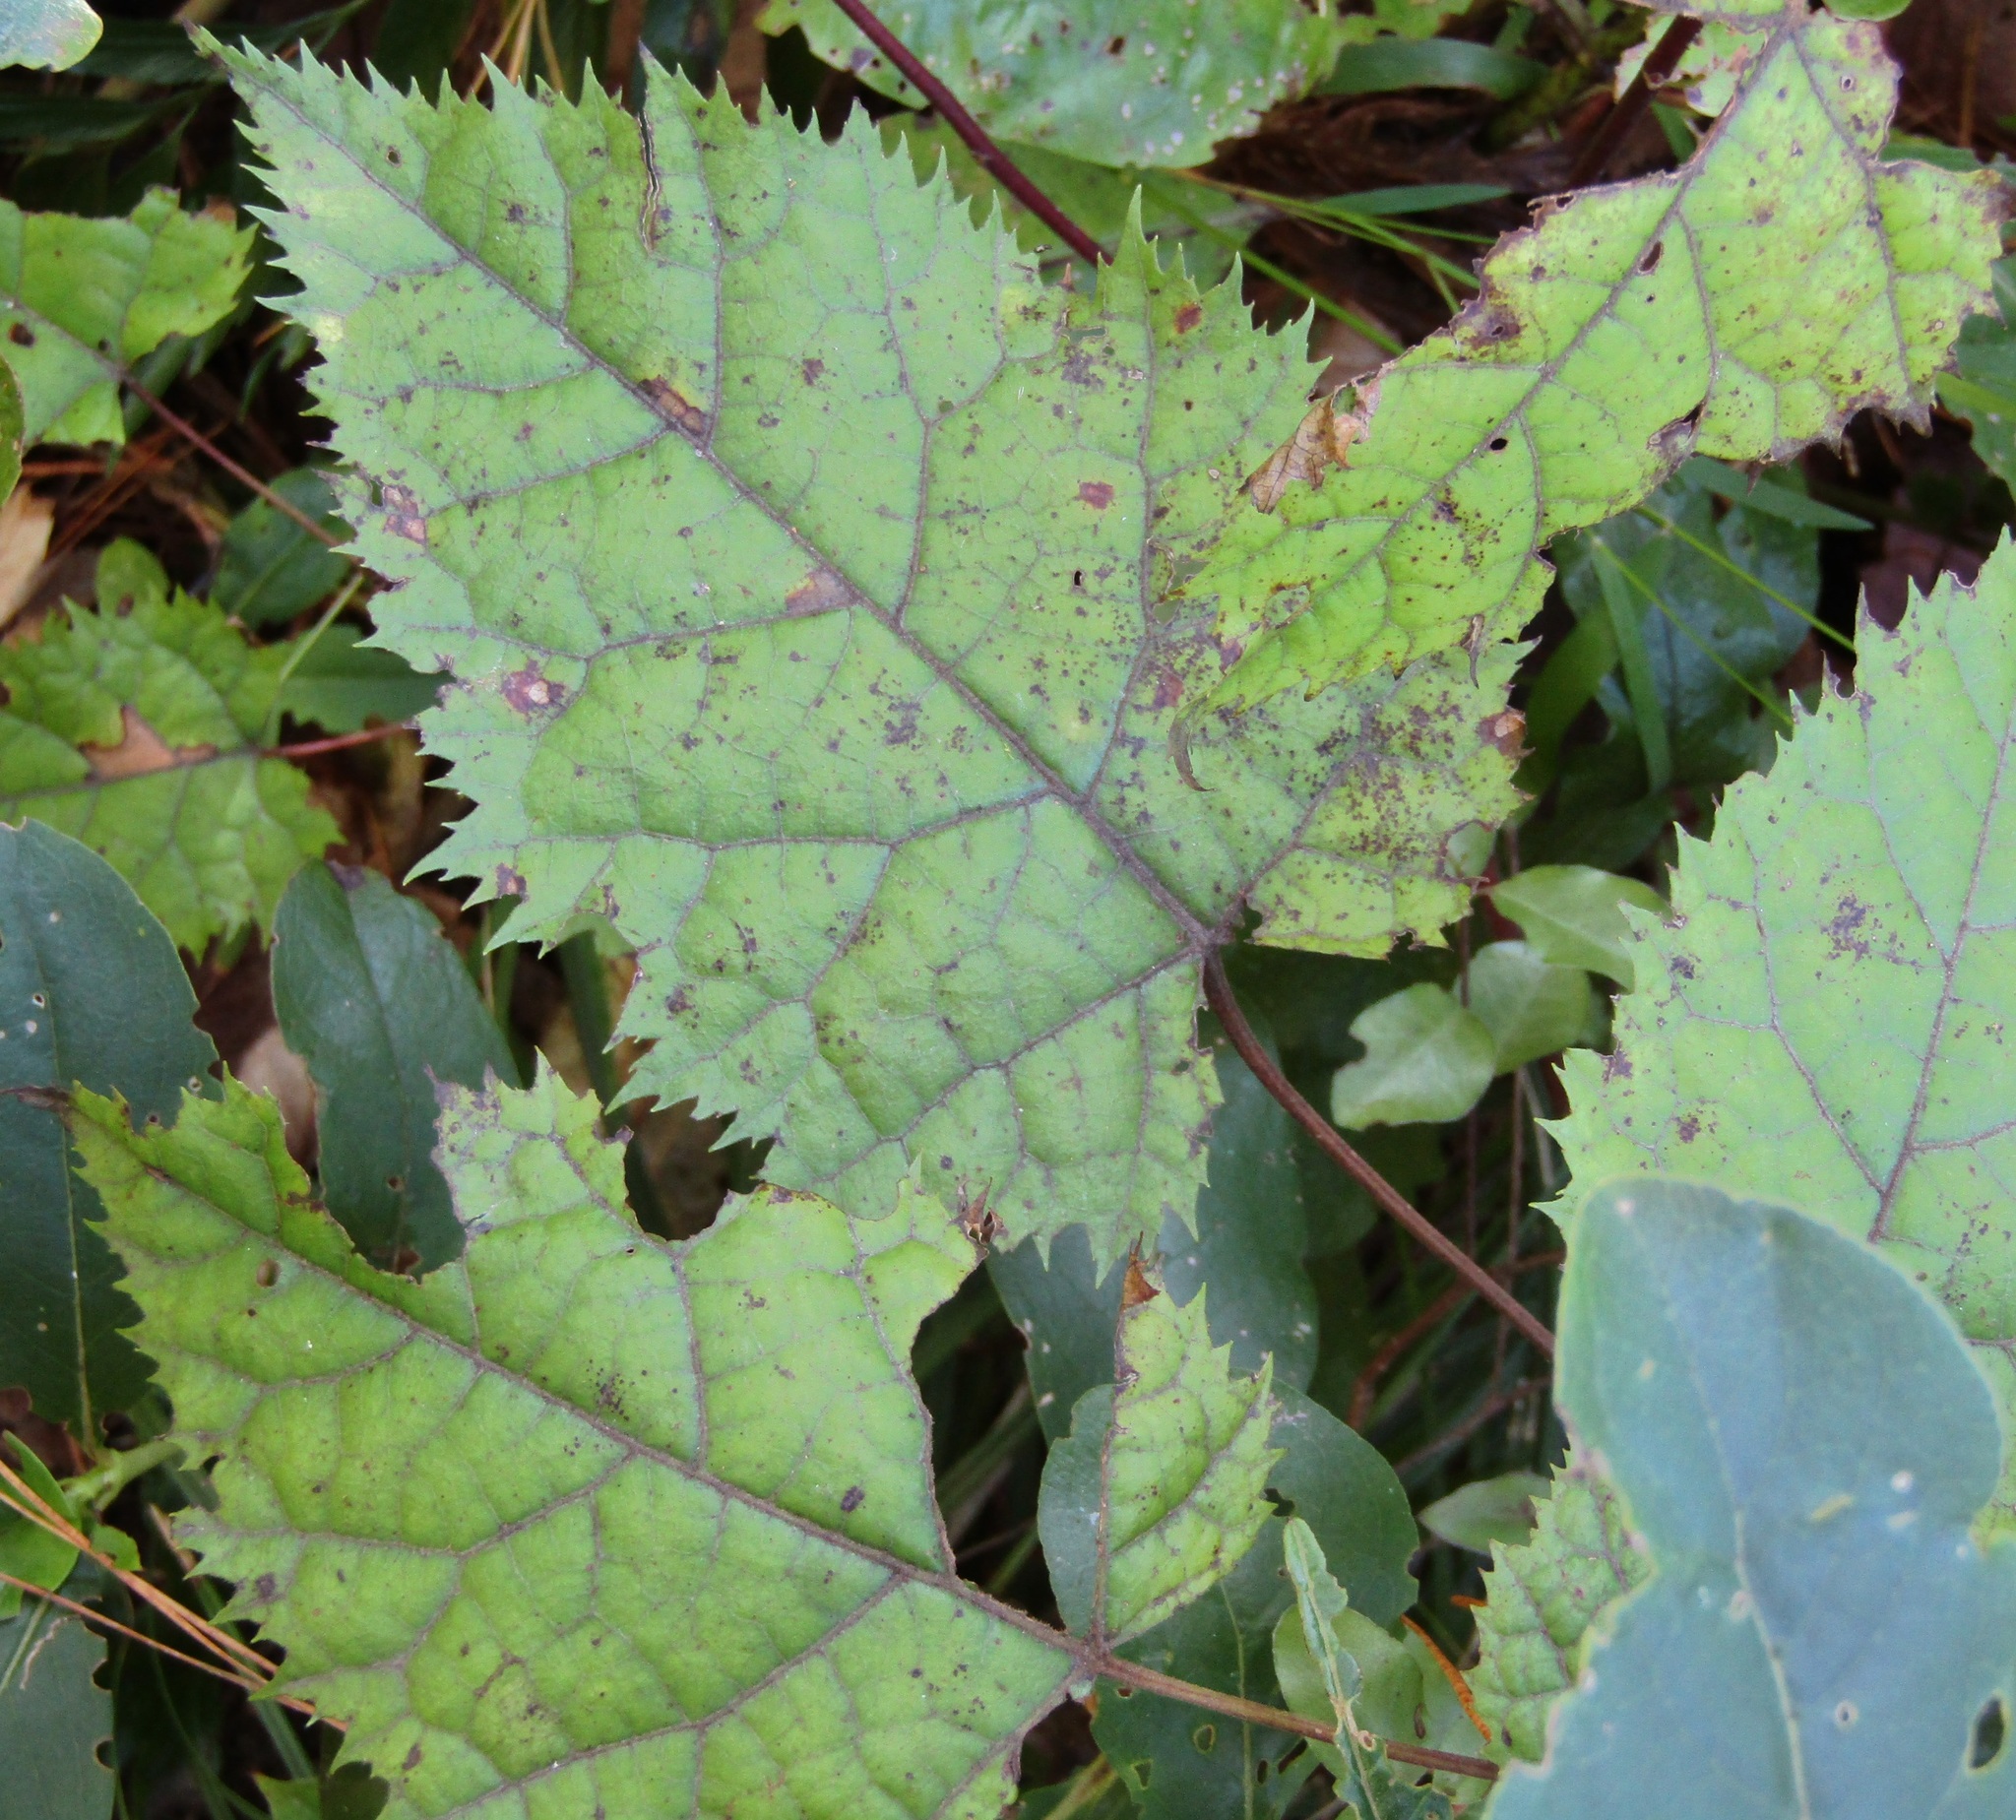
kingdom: Plantae
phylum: Tracheophyta
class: Magnoliopsida
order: Oxalidales
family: Elaeocarpaceae
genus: Aristotelia
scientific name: Aristotelia serrata
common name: New zealand wineberry
